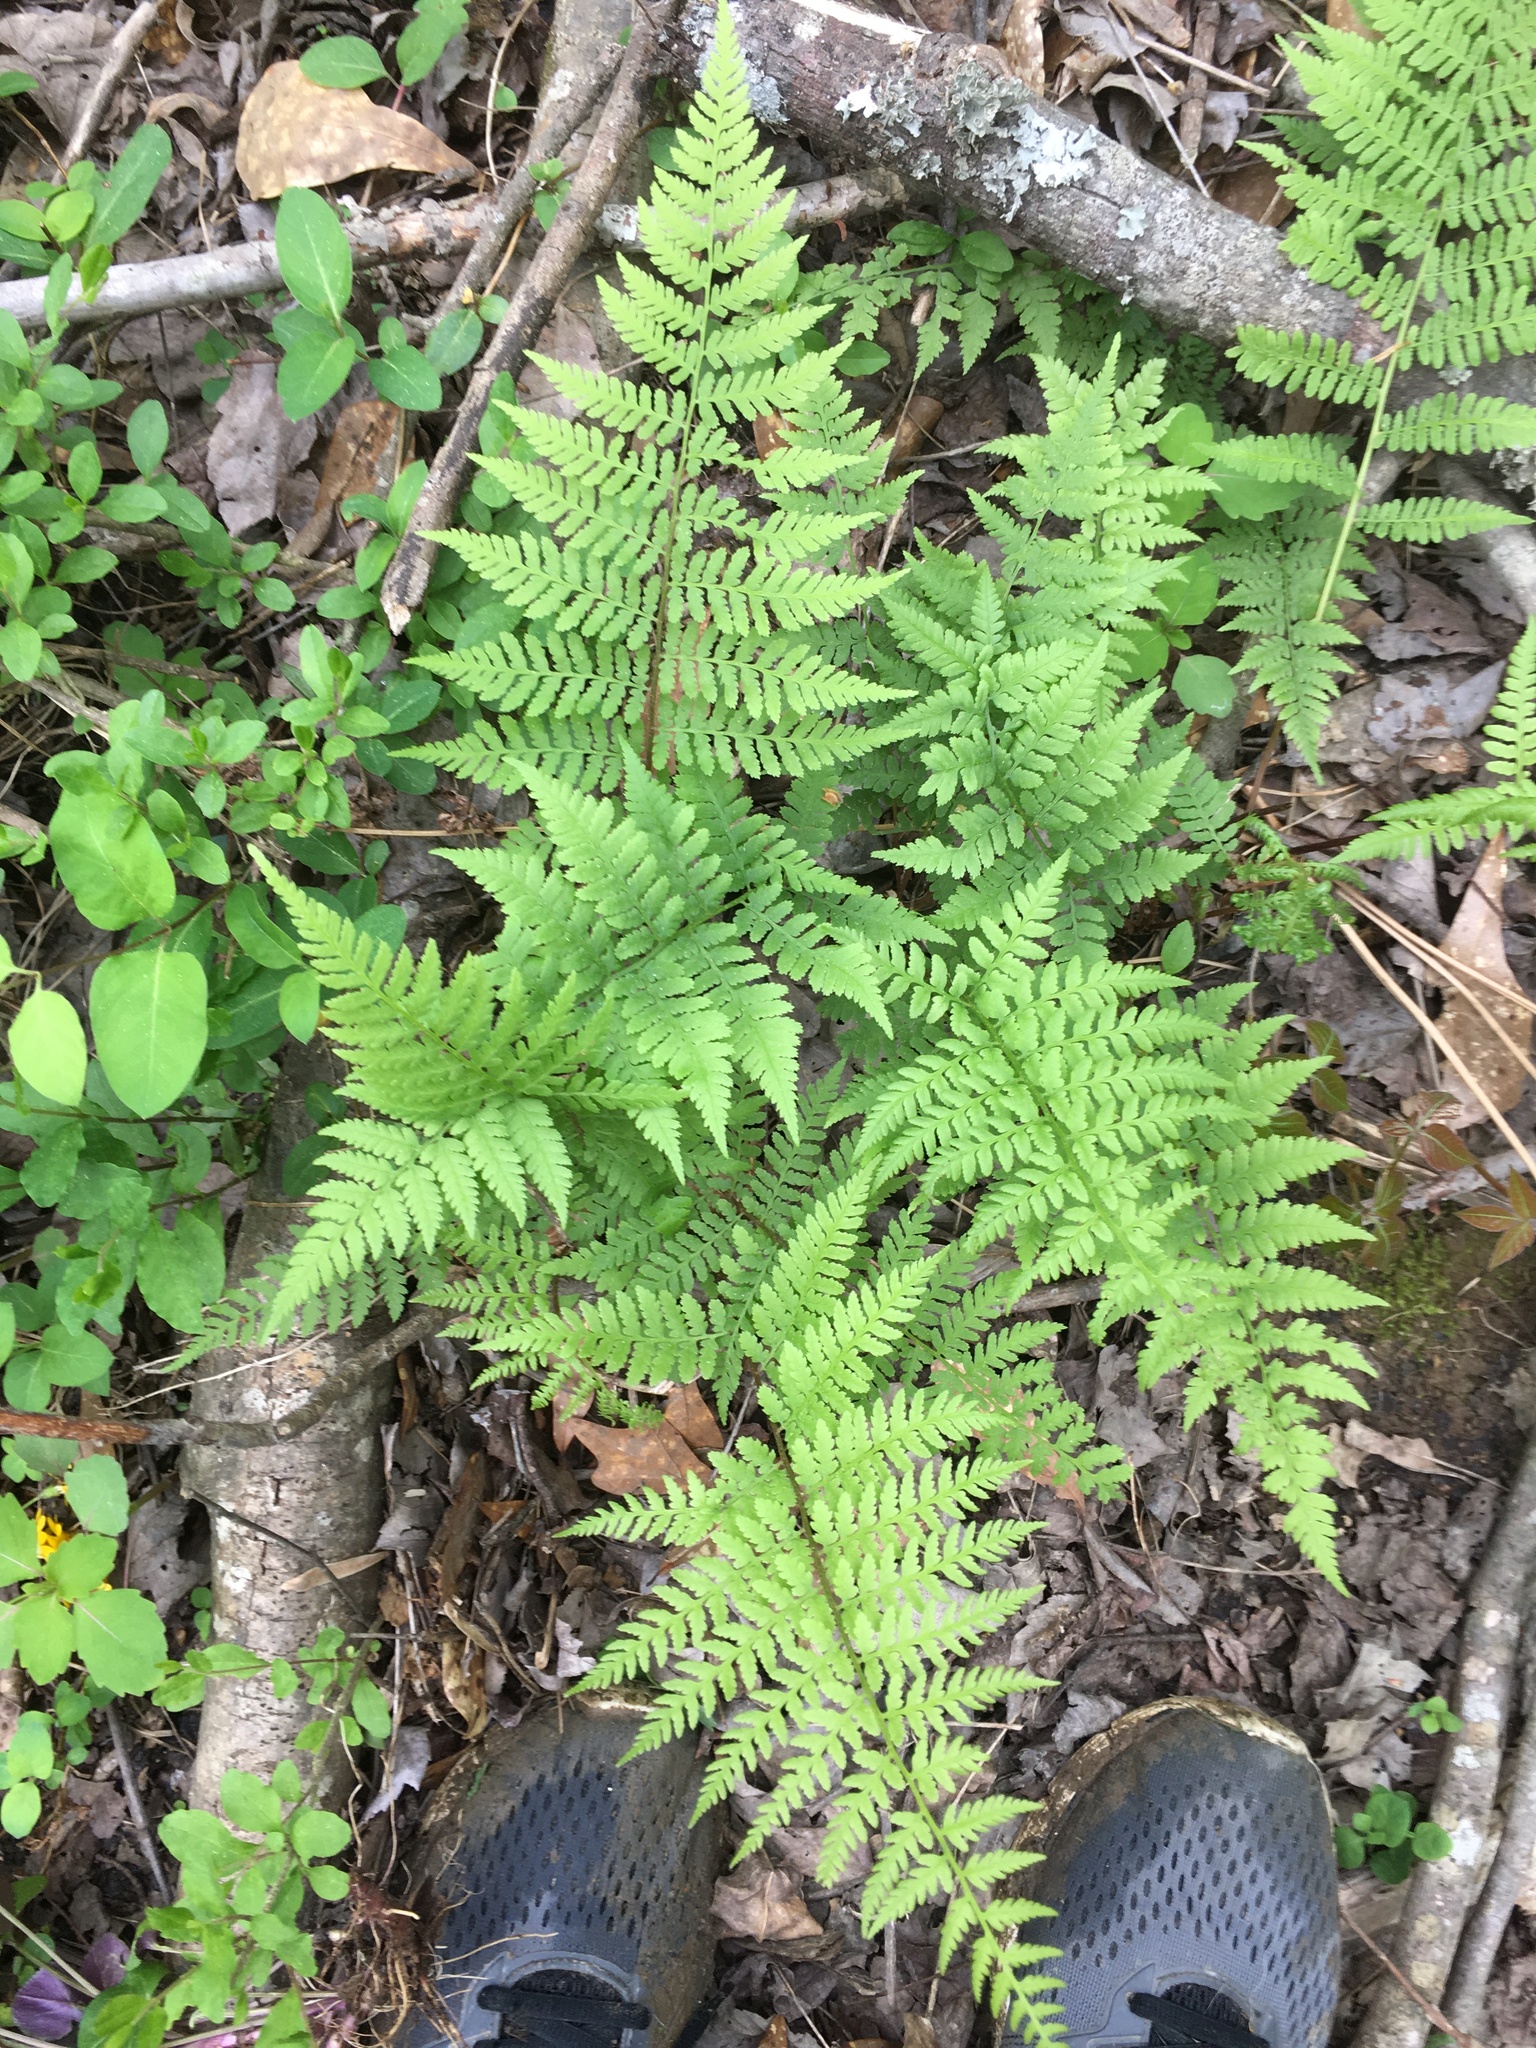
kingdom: Plantae
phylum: Tracheophyta
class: Polypodiopsida
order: Polypodiales
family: Athyriaceae
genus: Athyrium
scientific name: Athyrium asplenioides
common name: Southern lady fern
